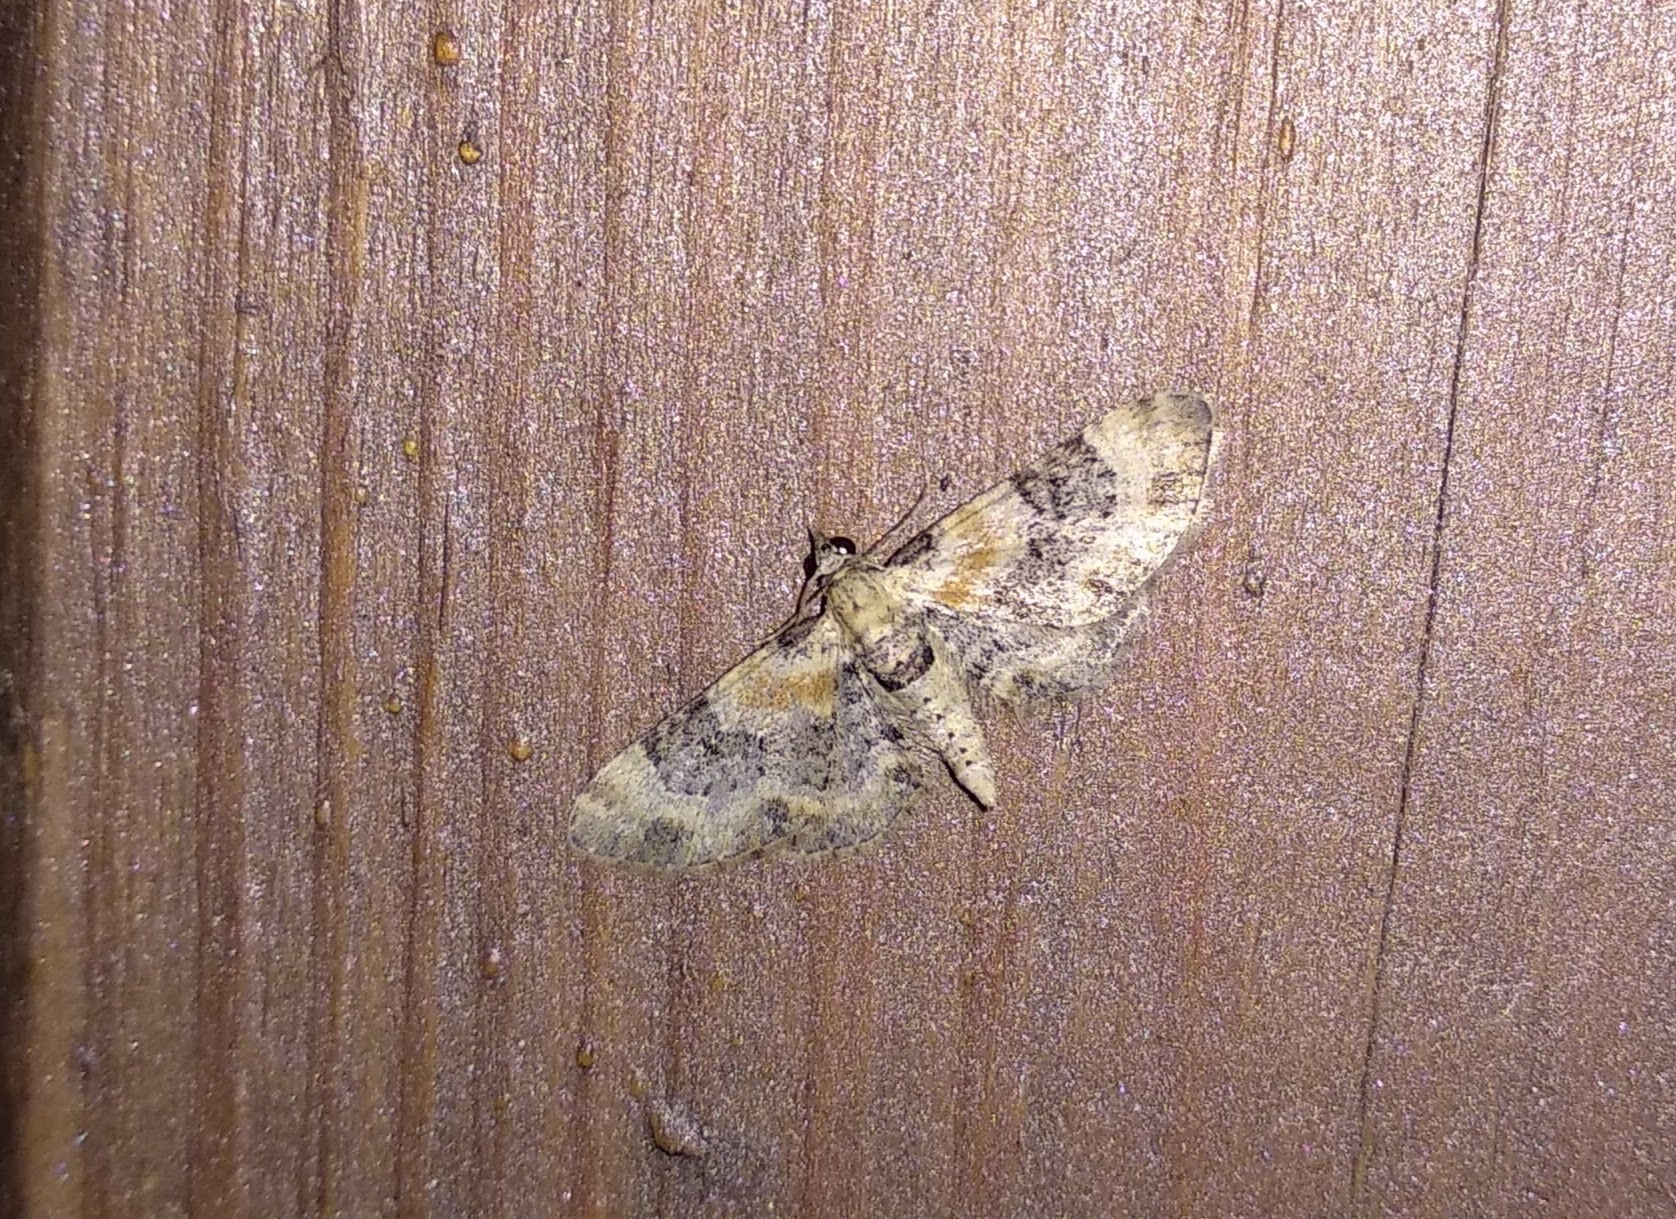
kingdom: Animalia
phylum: Arthropoda
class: Insecta
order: Lepidoptera
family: Geometridae
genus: Eupithecia
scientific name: Eupithecia linariata
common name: Toadflax pug
